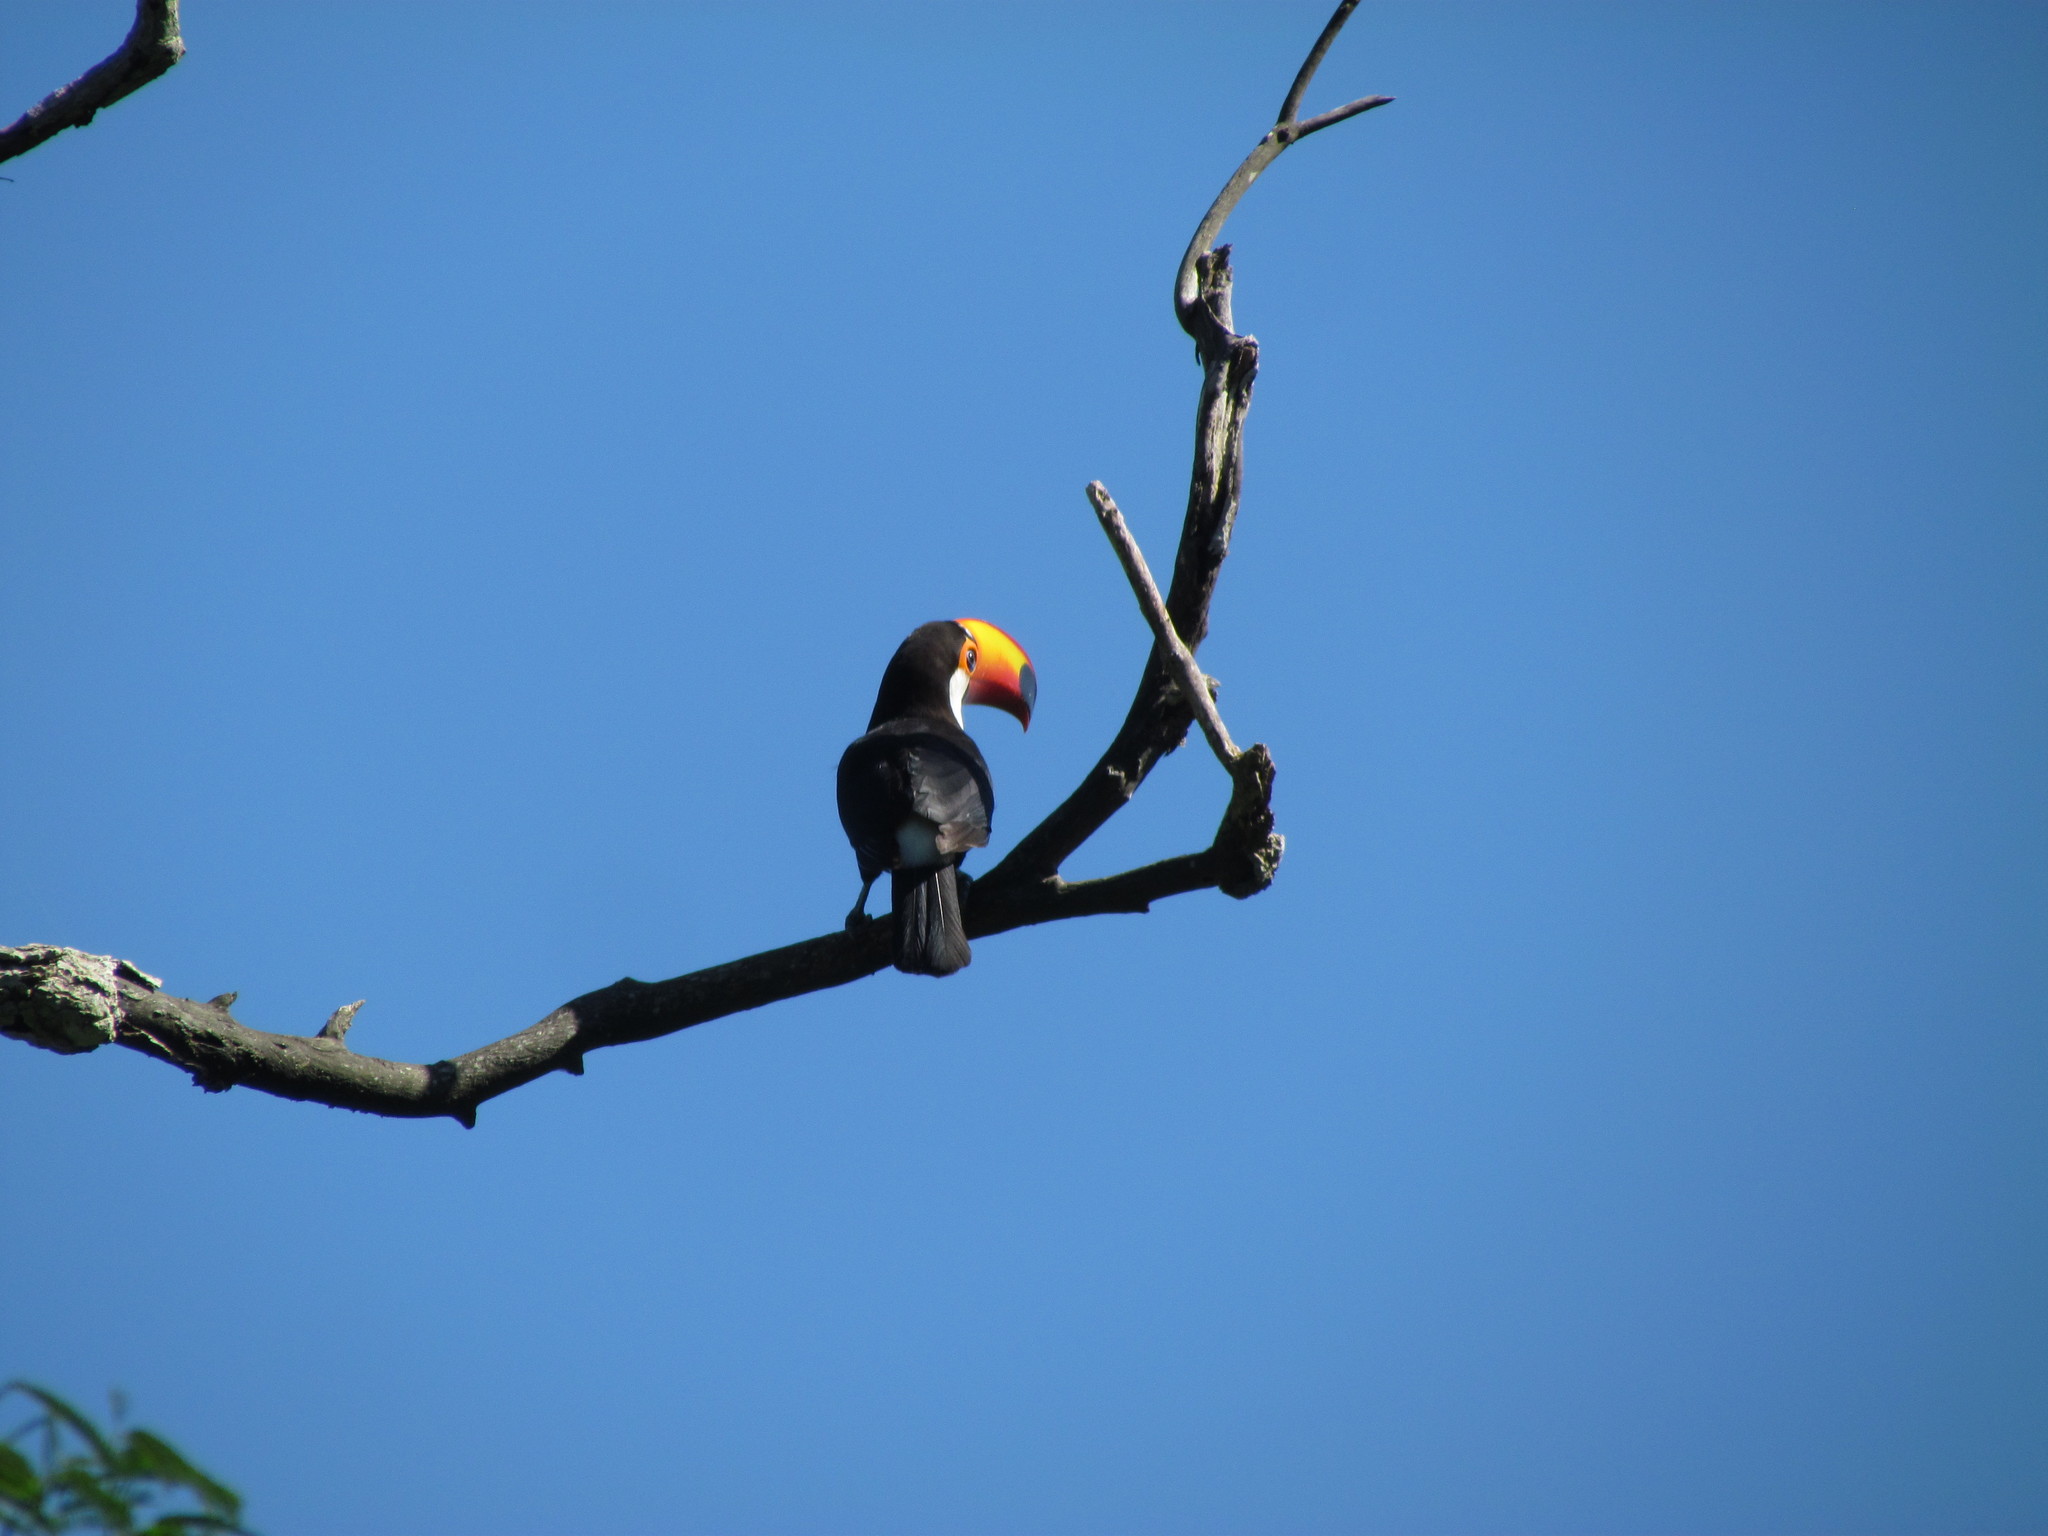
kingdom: Animalia
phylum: Chordata
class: Aves
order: Piciformes
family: Ramphastidae
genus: Ramphastos
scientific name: Ramphastos toco
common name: Toco toucan
